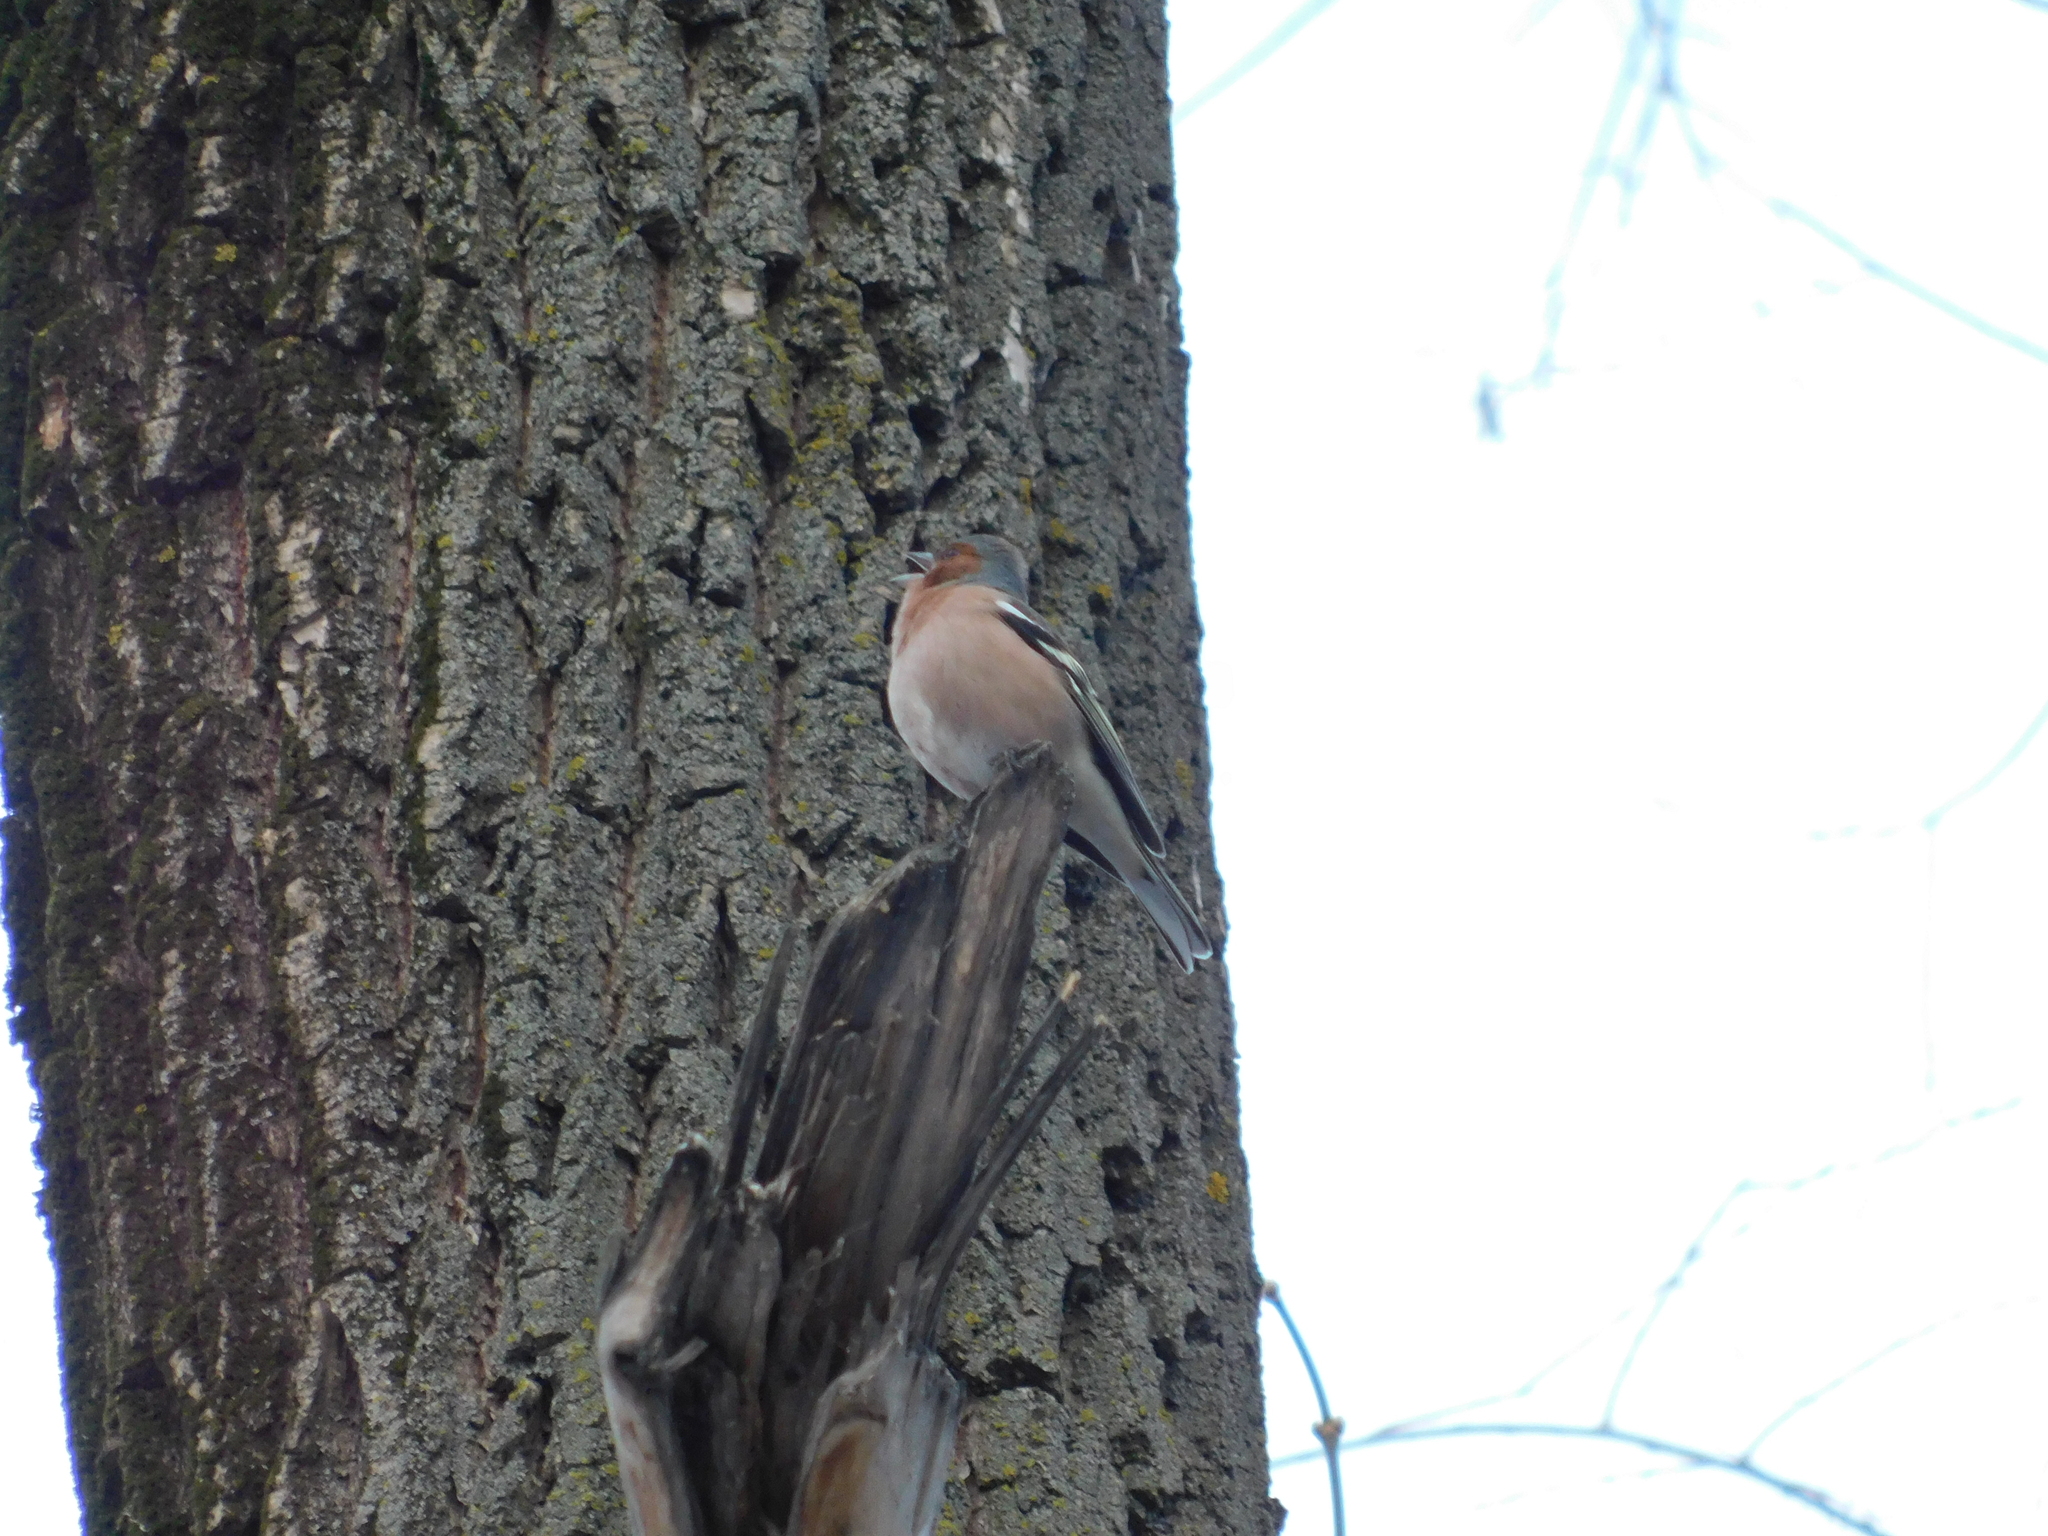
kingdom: Animalia
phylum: Chordata
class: Aves
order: Passeriformes
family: Fringillidae
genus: Fringilla
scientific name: Fringilla coelebs
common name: Common chaffinch
